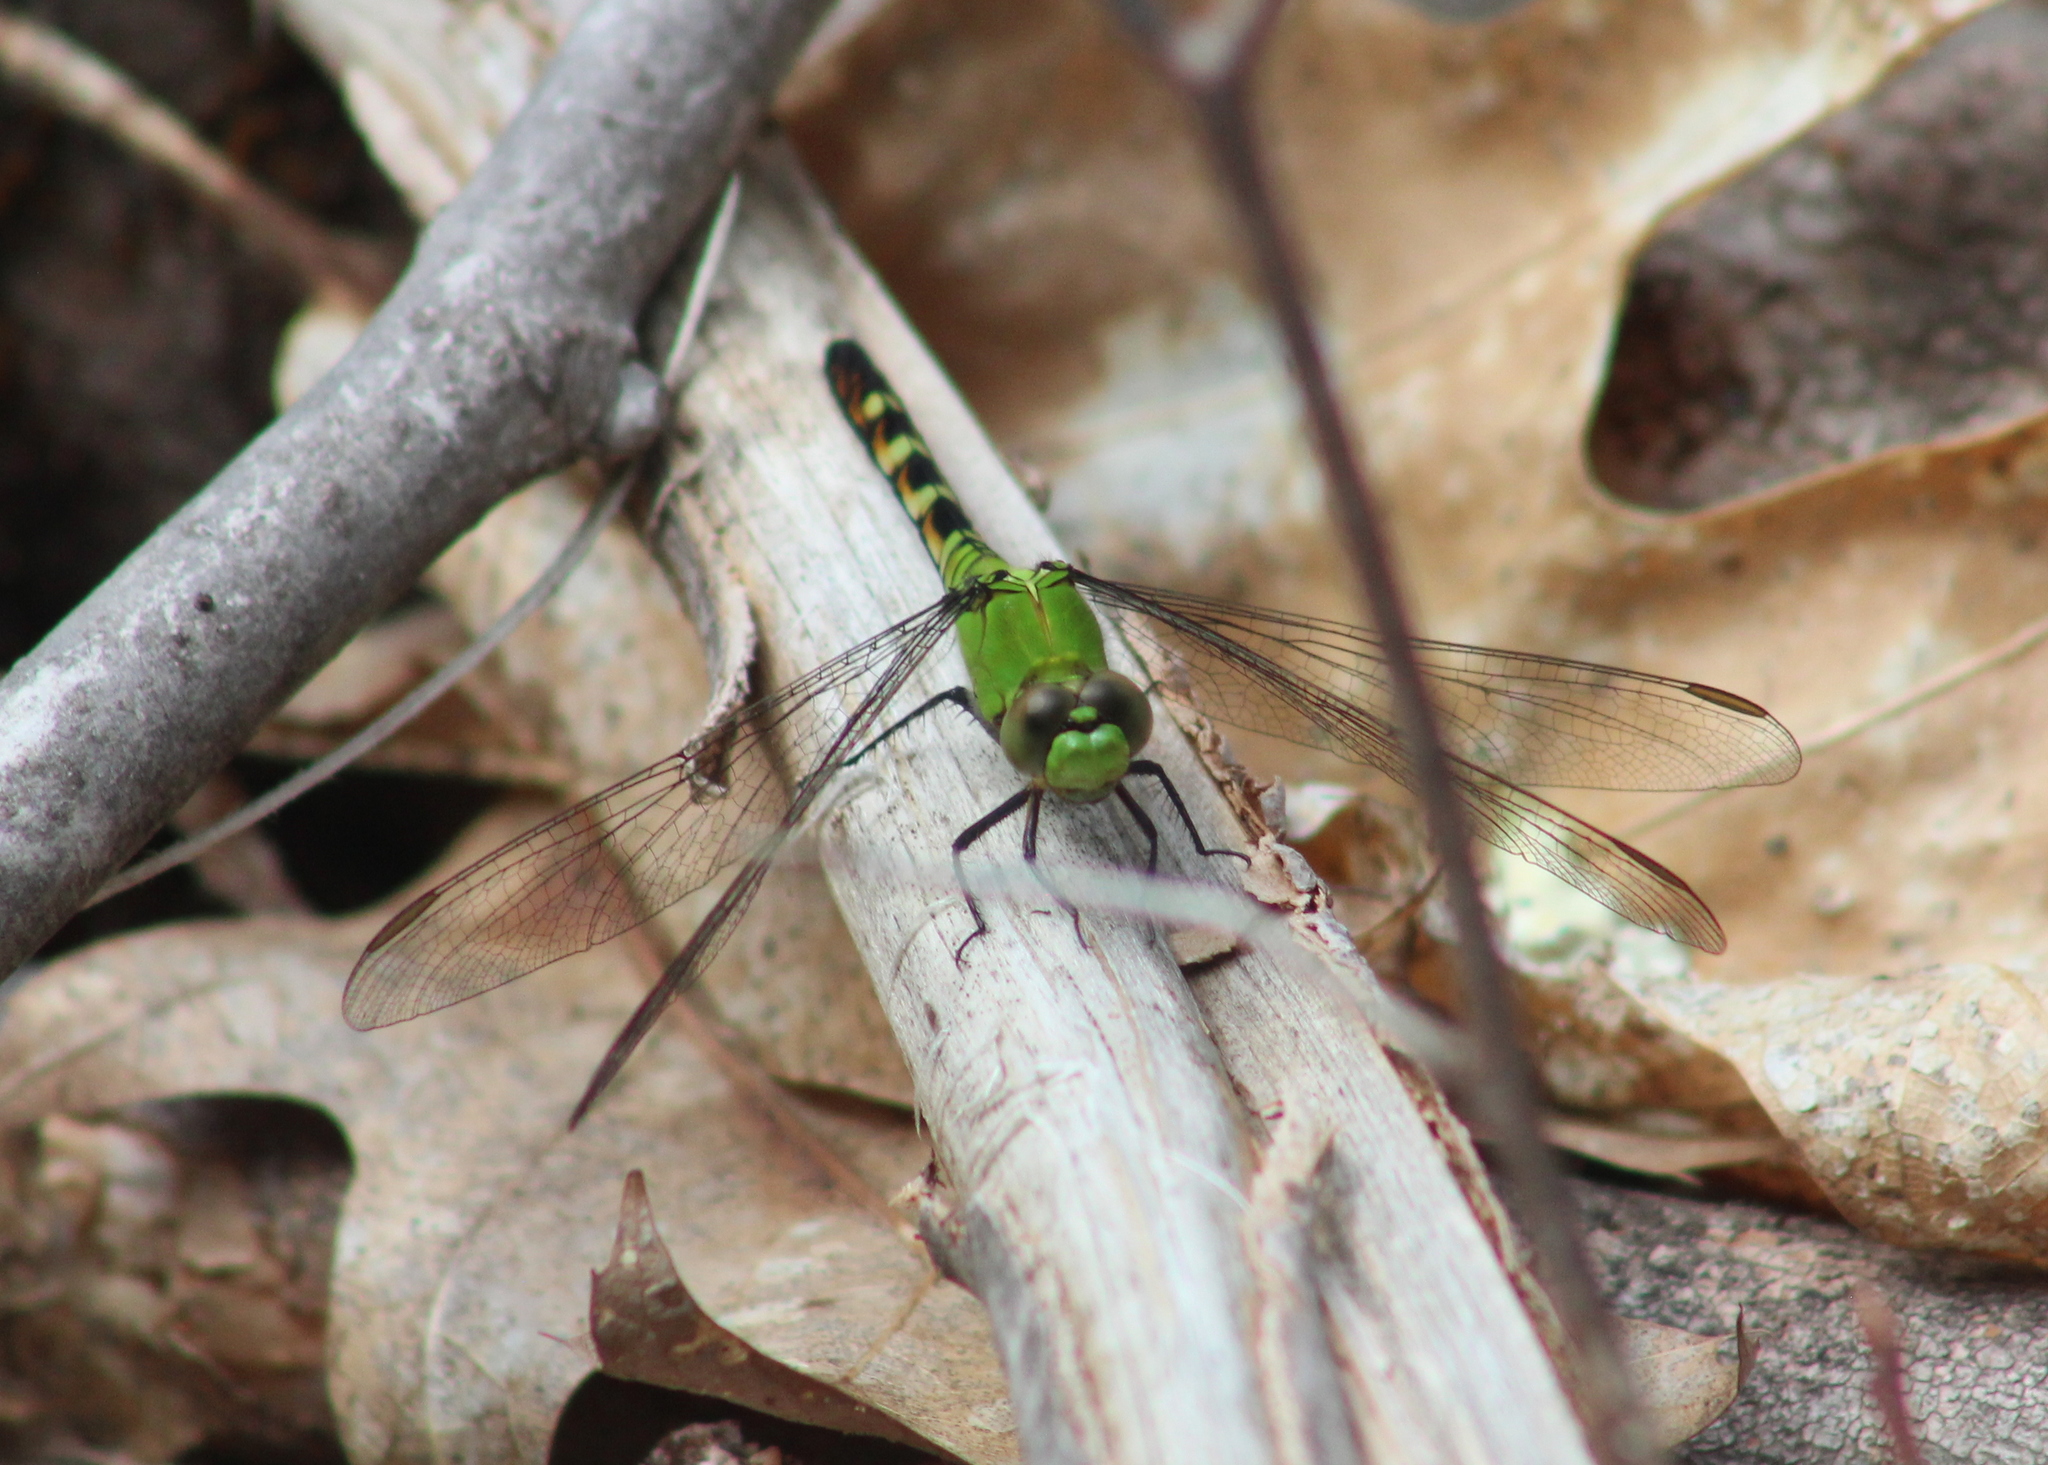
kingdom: Animalia
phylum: Arthropoda
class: Insecta
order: Odonata
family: Libellulidae
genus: Erythemis
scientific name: Erythemis simplicicollis
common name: Eastern pondhawk
